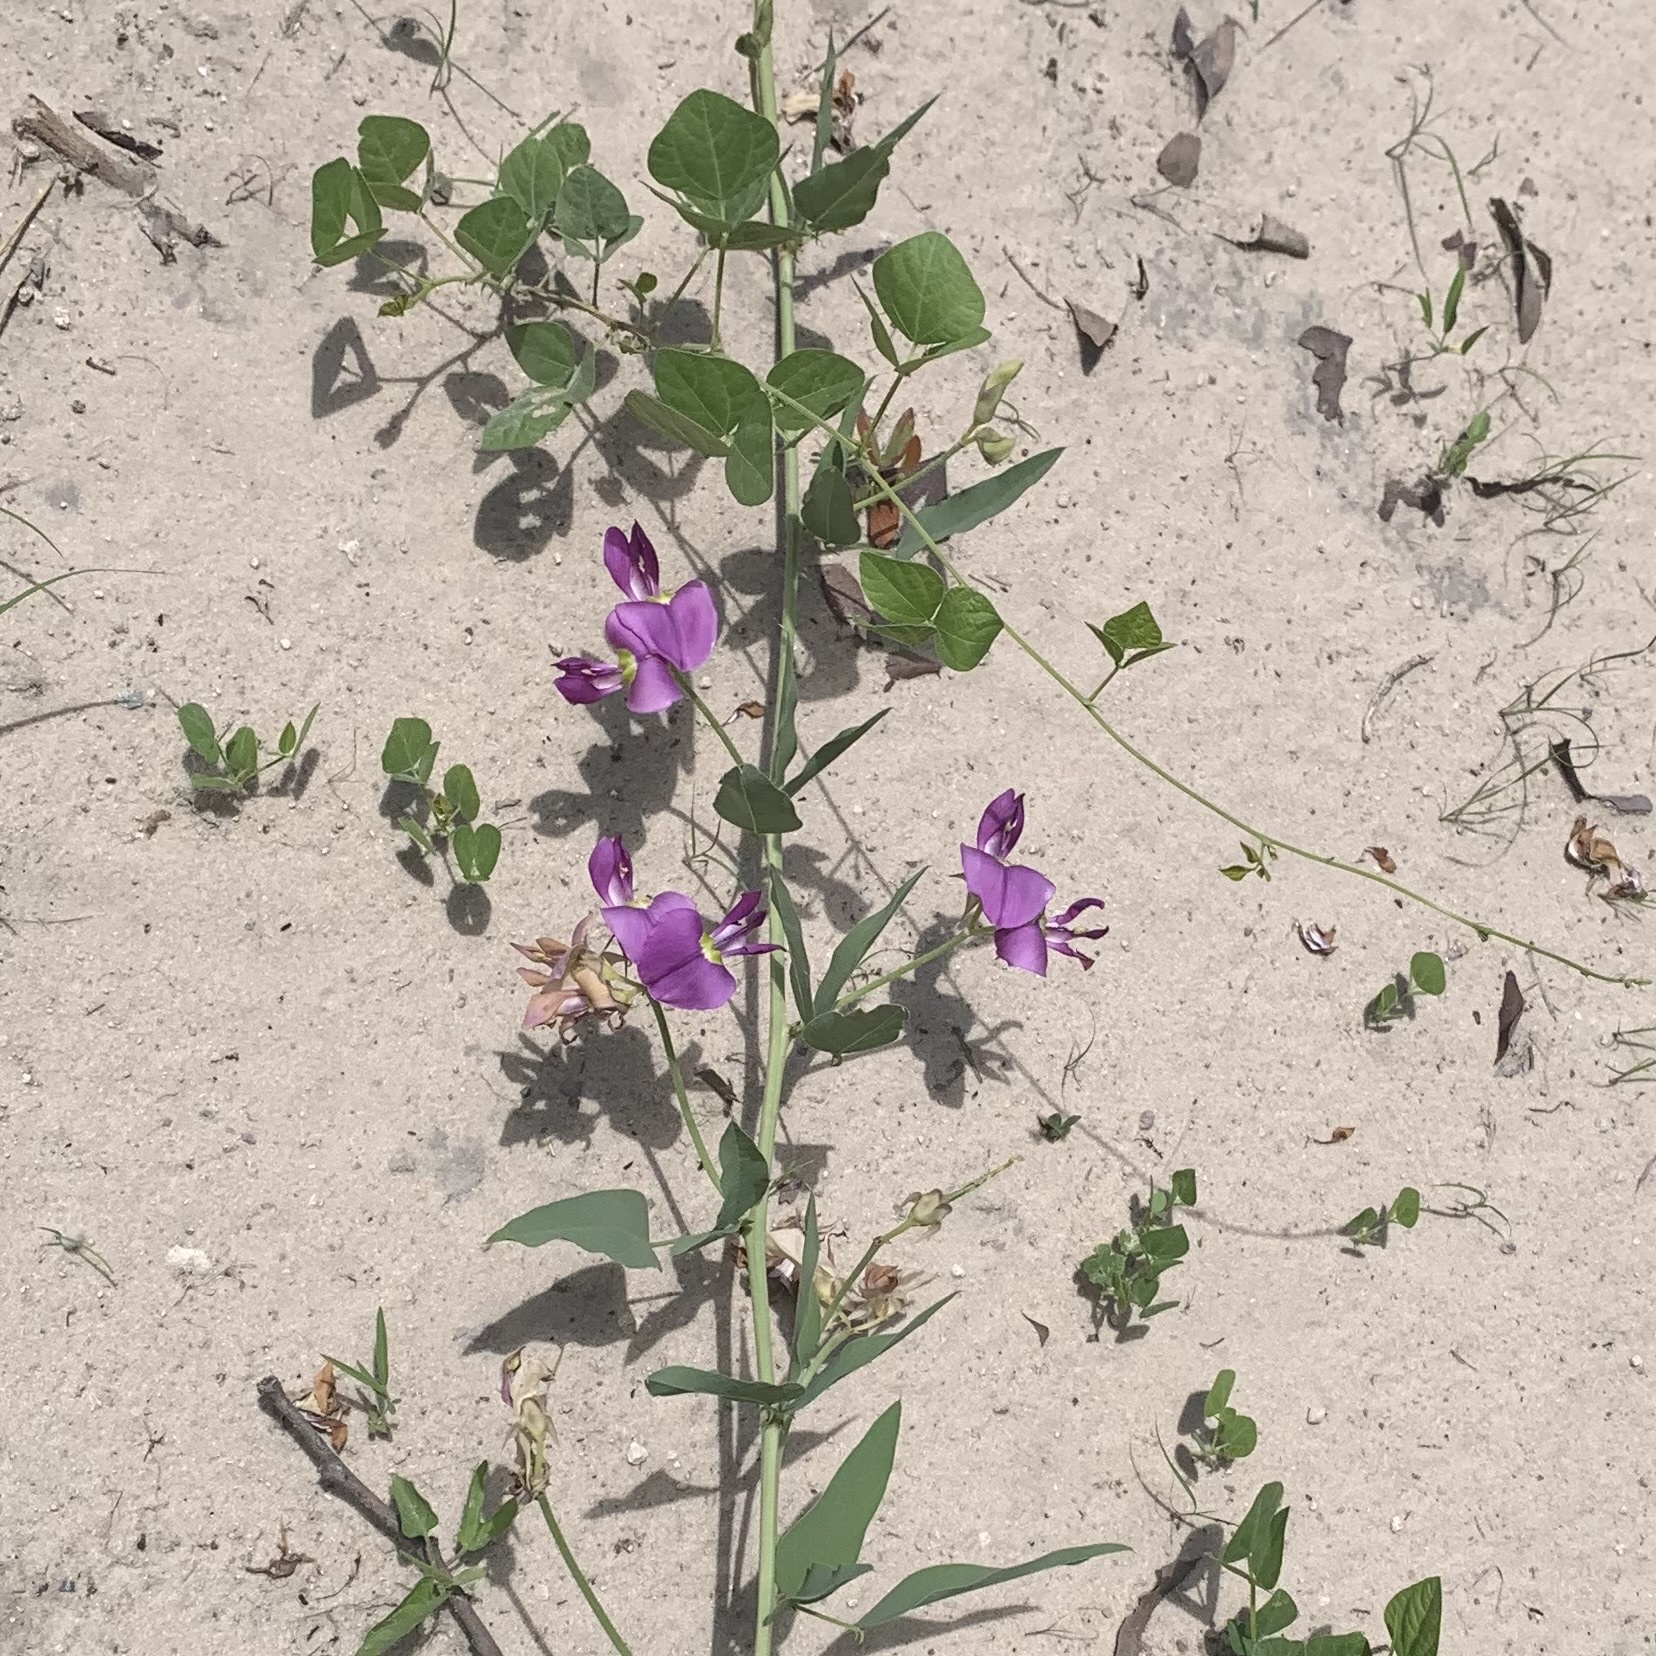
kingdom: Plantae
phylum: Tracheophyta
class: Magnoliopsida
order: Fabales
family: Fabaceae
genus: Otoptera
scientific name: Otoptera burchellii
